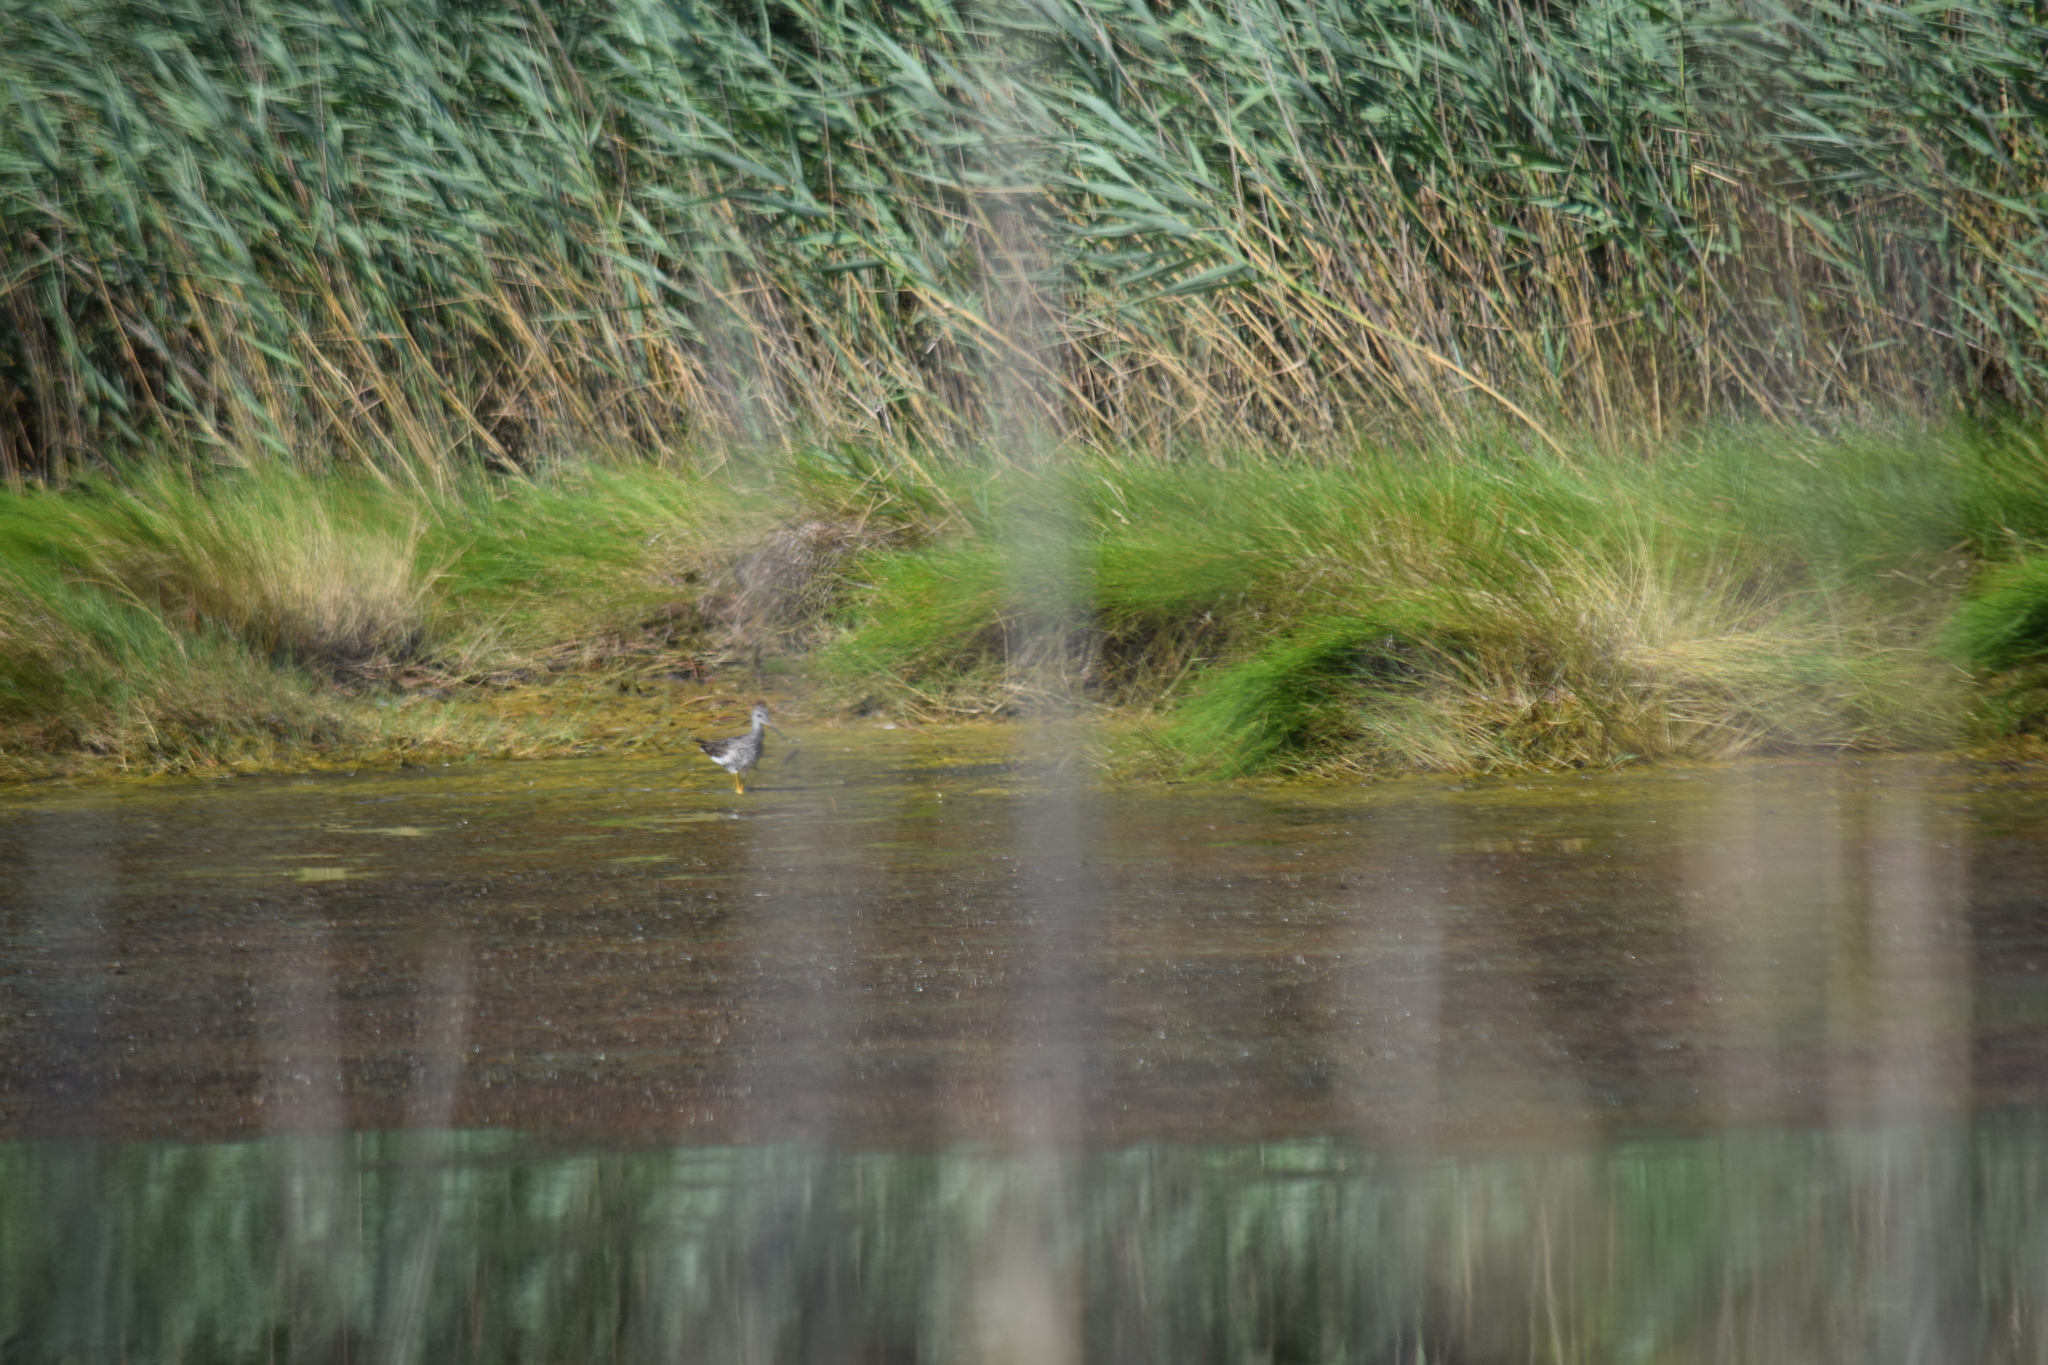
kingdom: Animalia
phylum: Chordata
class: Aves
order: Charadriiformes
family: Scolopacidae
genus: Tringa
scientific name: Tringa melanoleuca
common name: Greater yellowlegs
